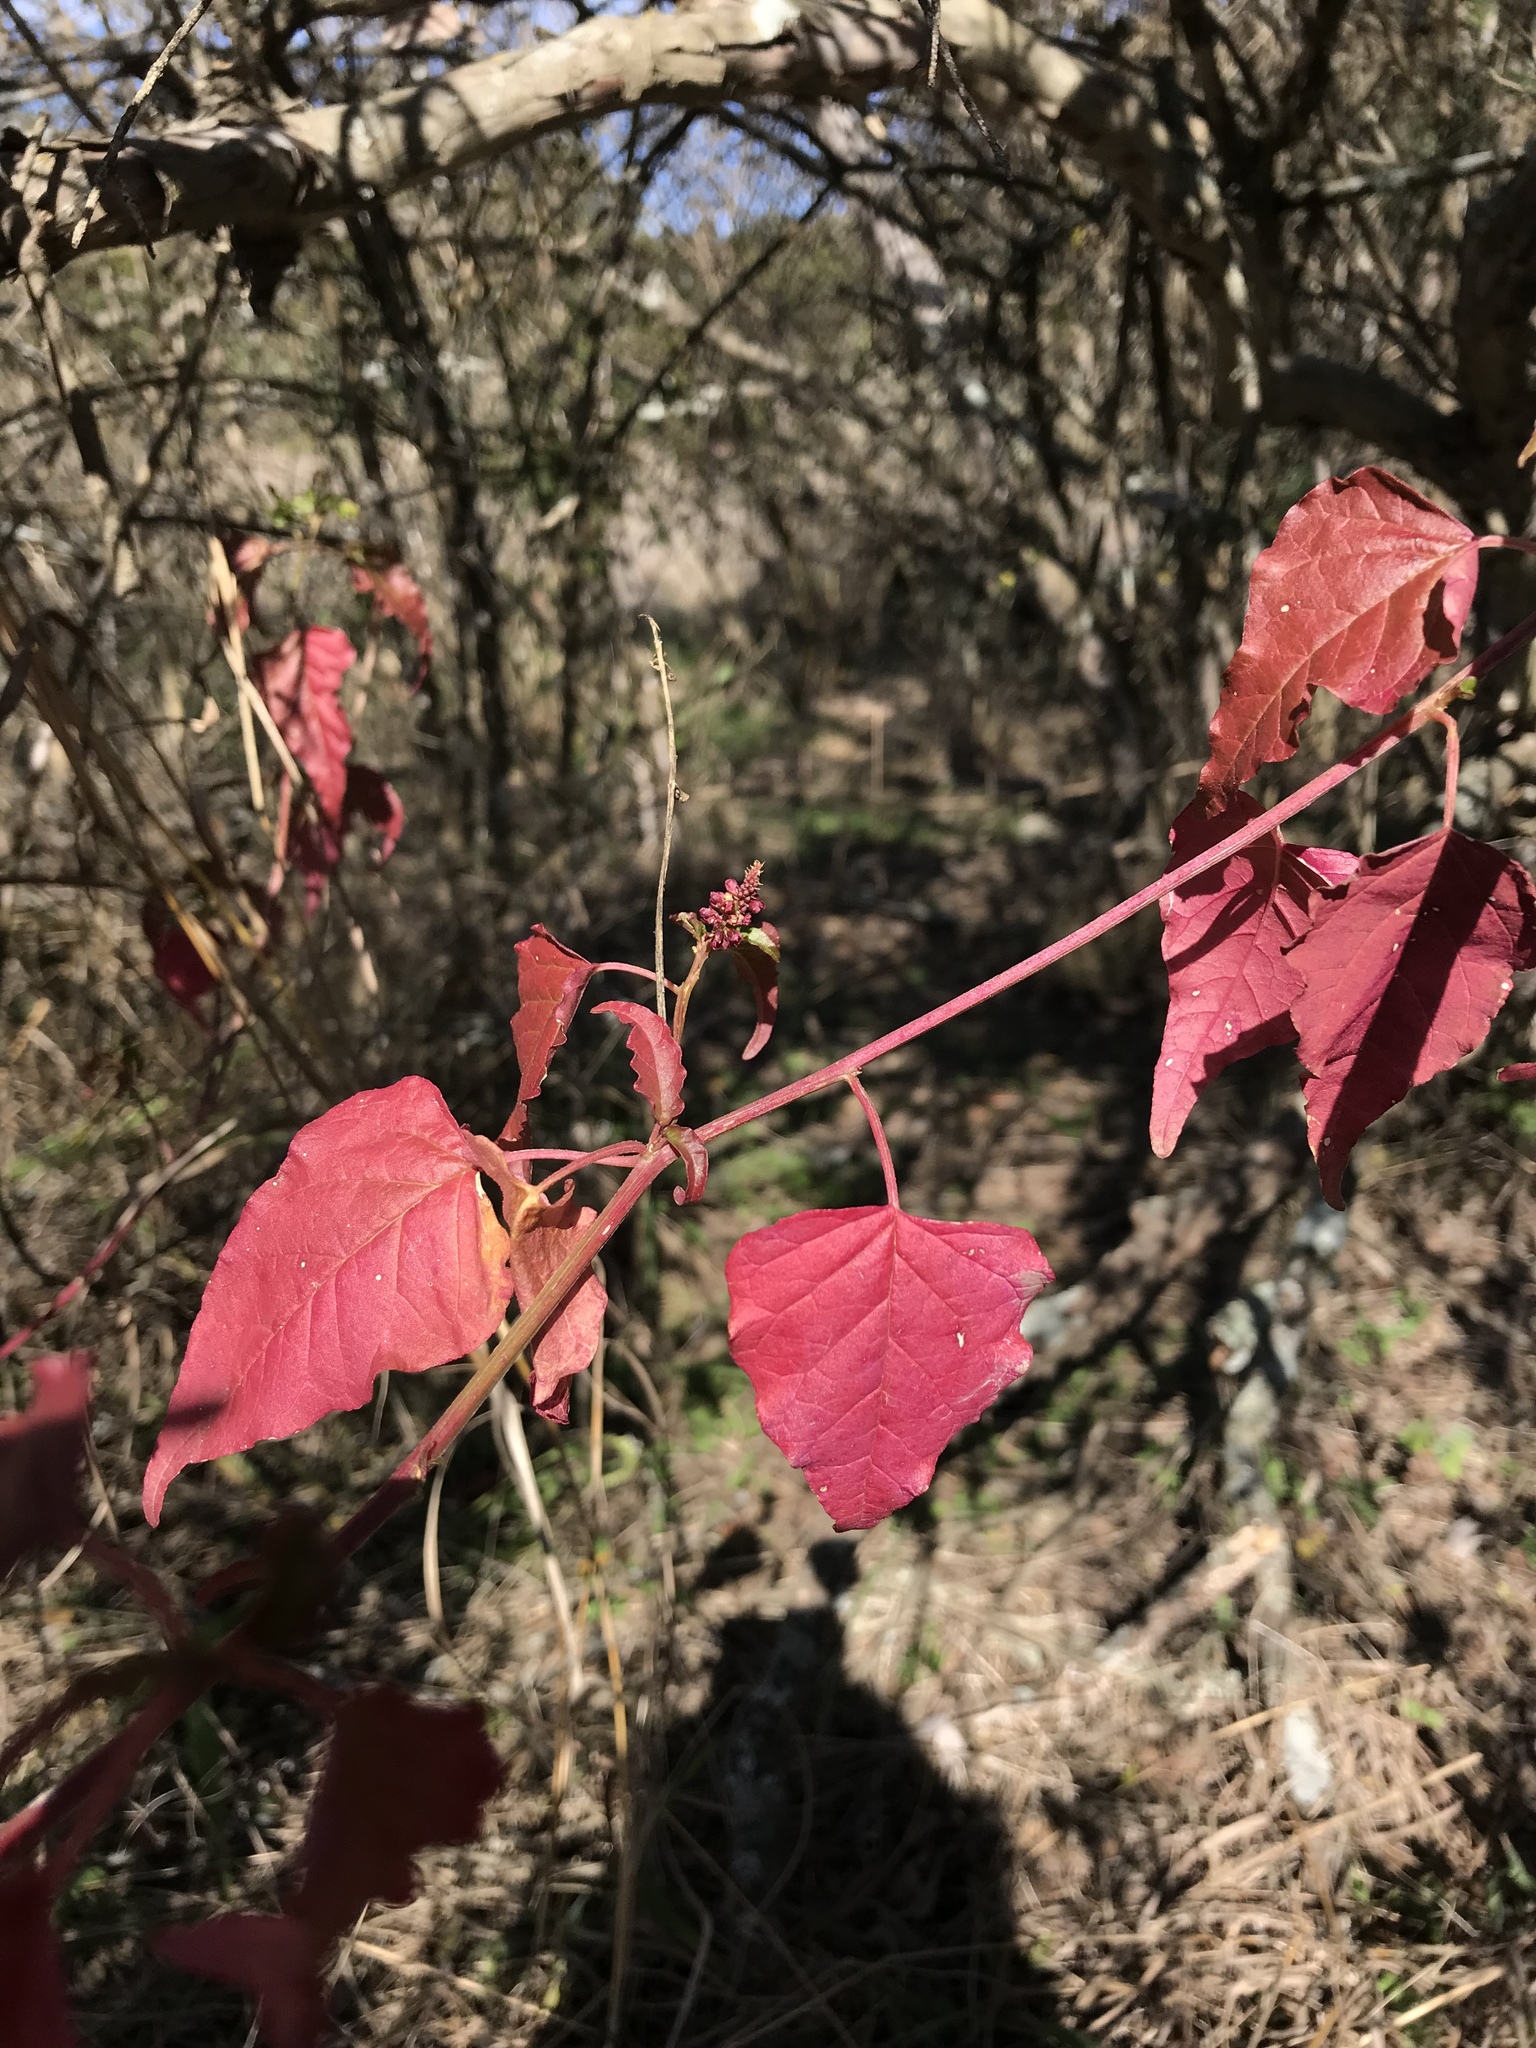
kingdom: Plantae
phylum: Tracheophyta
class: Magnoliopsida
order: Caryophyllales
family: Phytolaccaceae
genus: Rivina
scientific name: Rivina humilis
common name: Rougeplant
